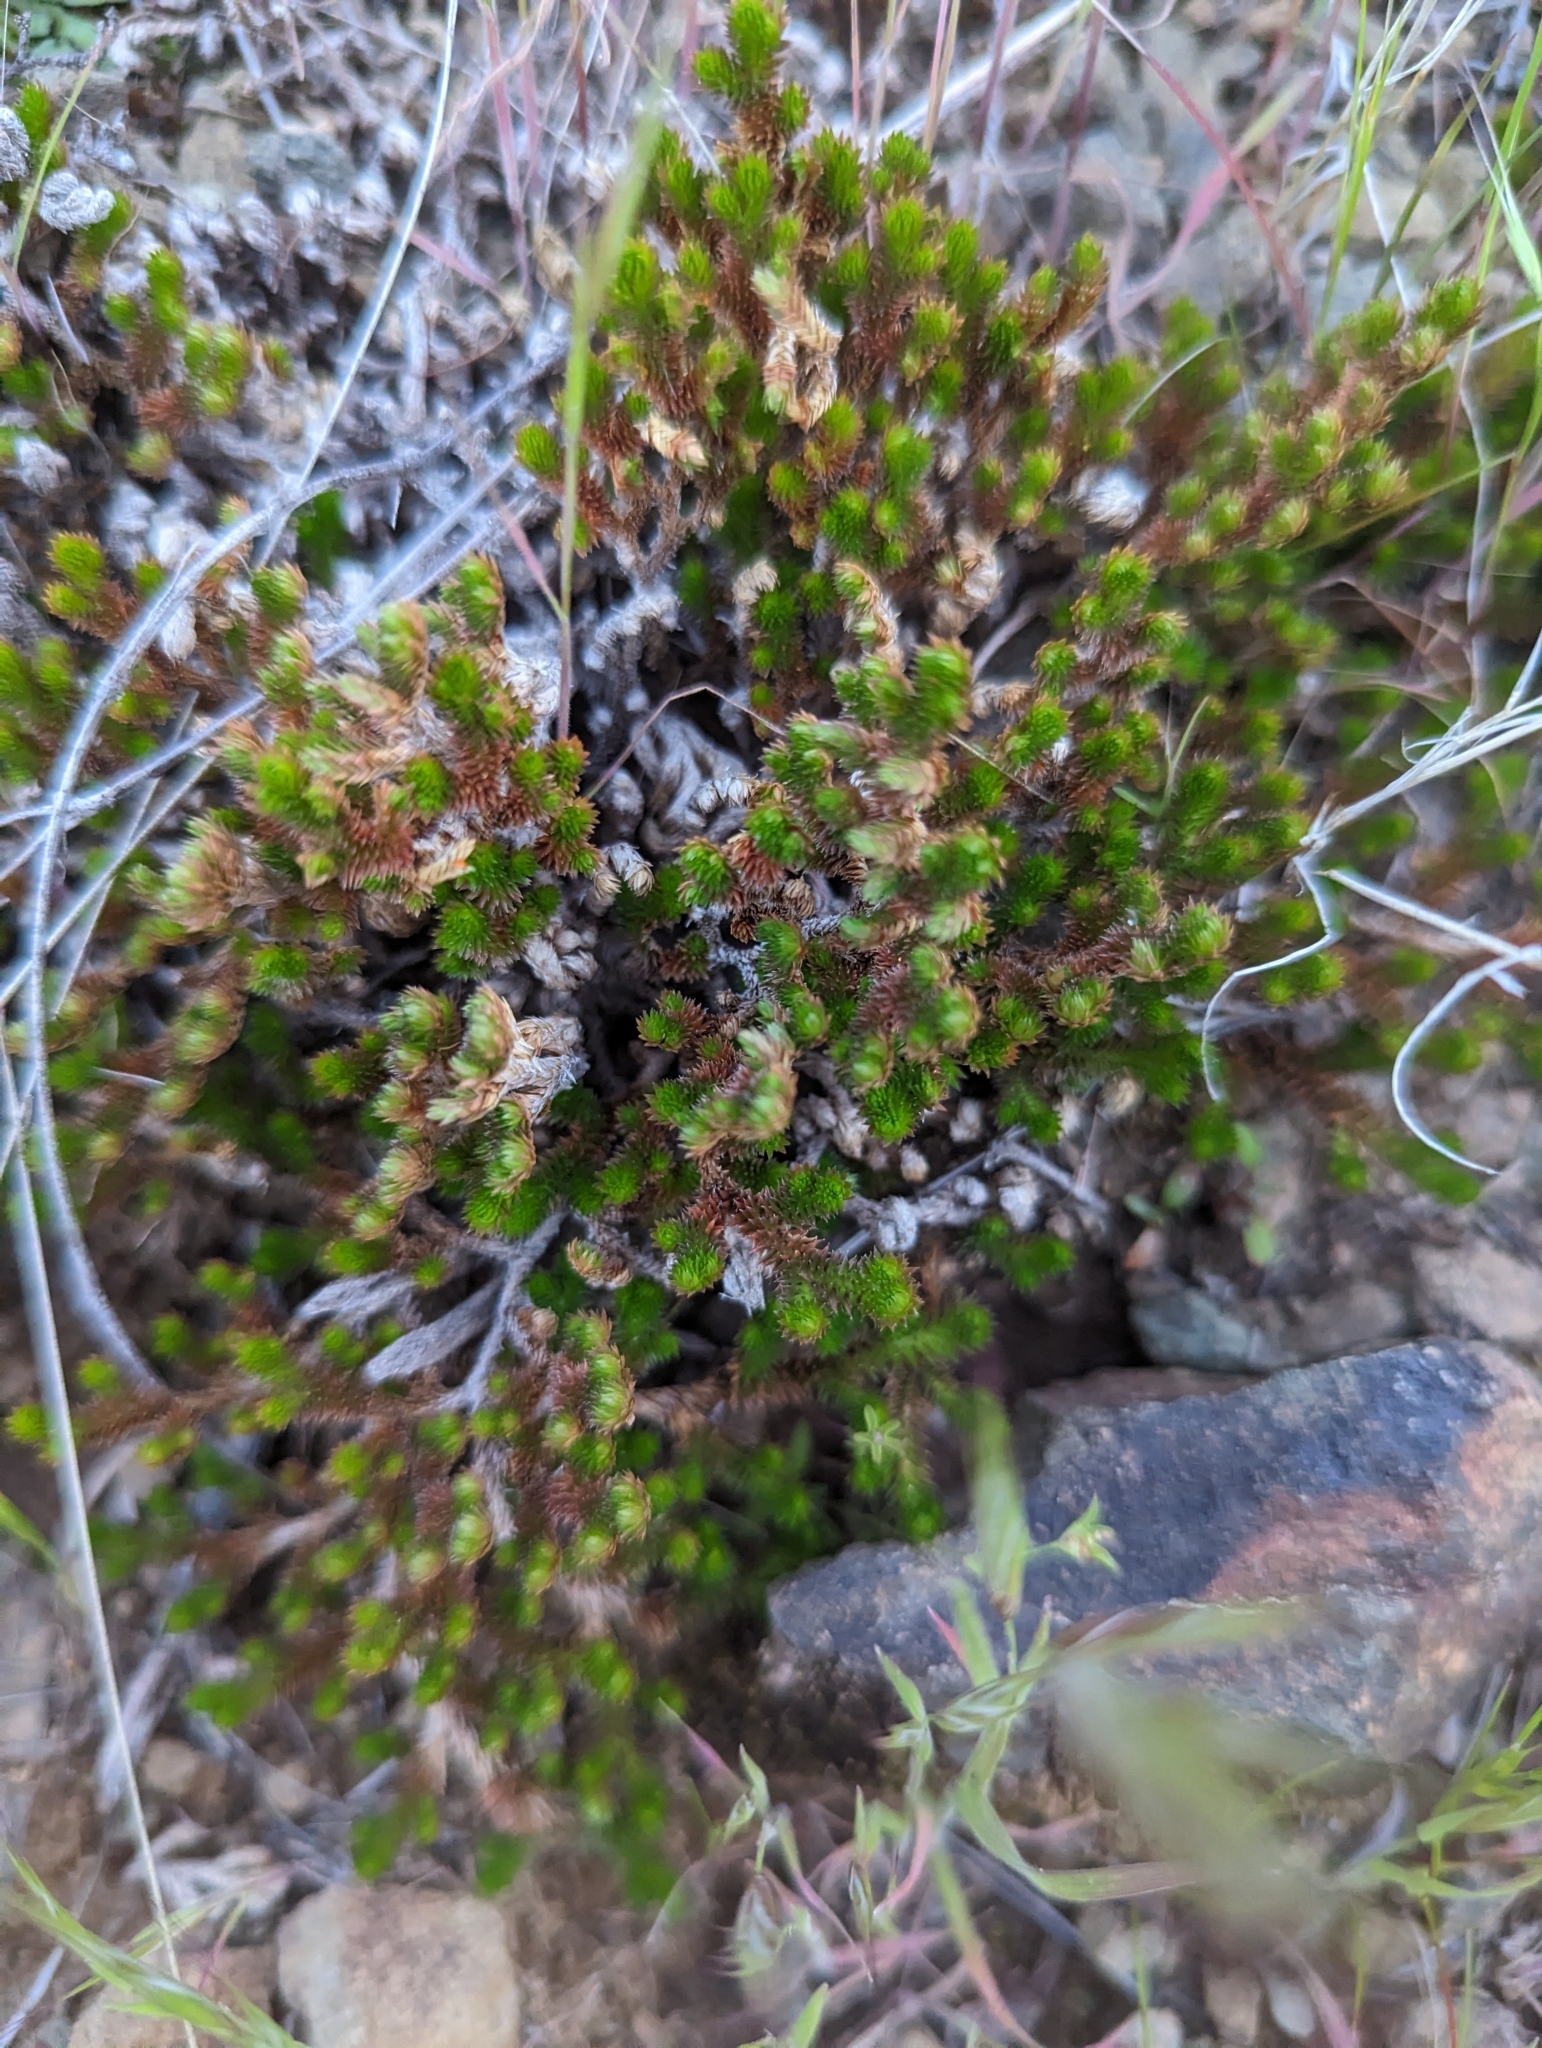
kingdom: Plantae
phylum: Tracheophyta
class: Lycopodiopsida
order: Selaginellales
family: Selaginellaceae
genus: Selaginella
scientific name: Selaginella arizonica
